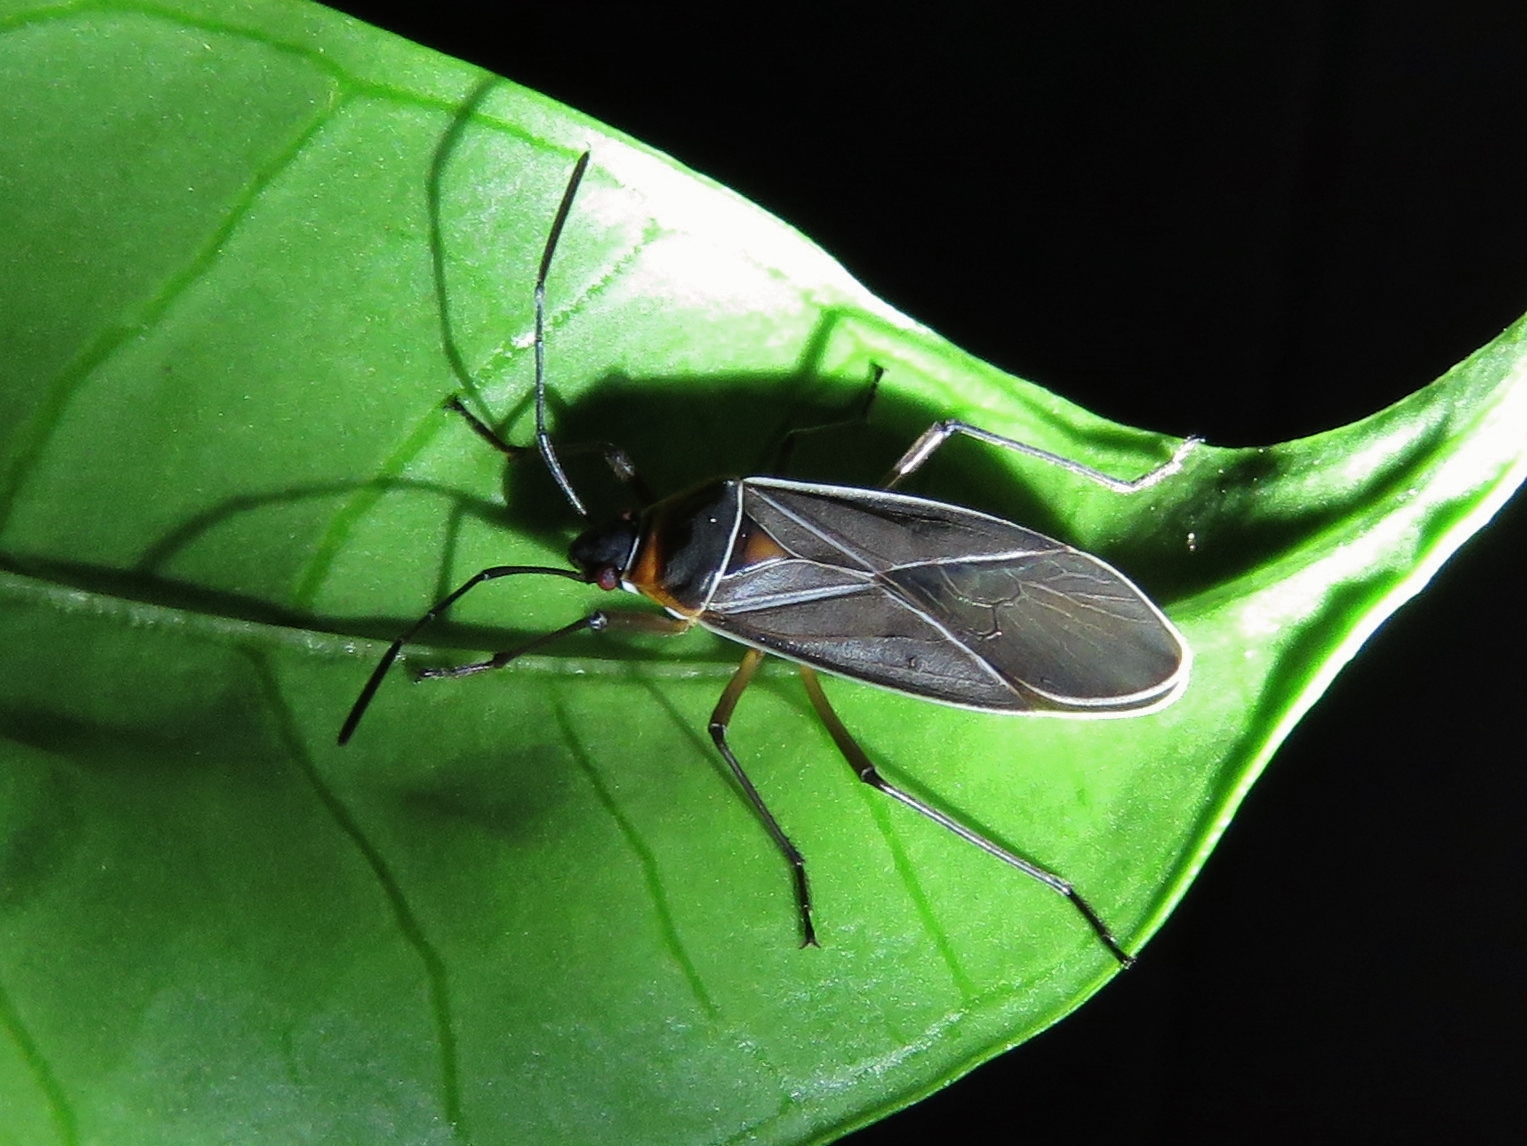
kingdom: Animalia
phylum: Arthropoda
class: Insecta
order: Hemiptera
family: Pyrrhocoridae
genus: Dysdercus
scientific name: Dysdercus
